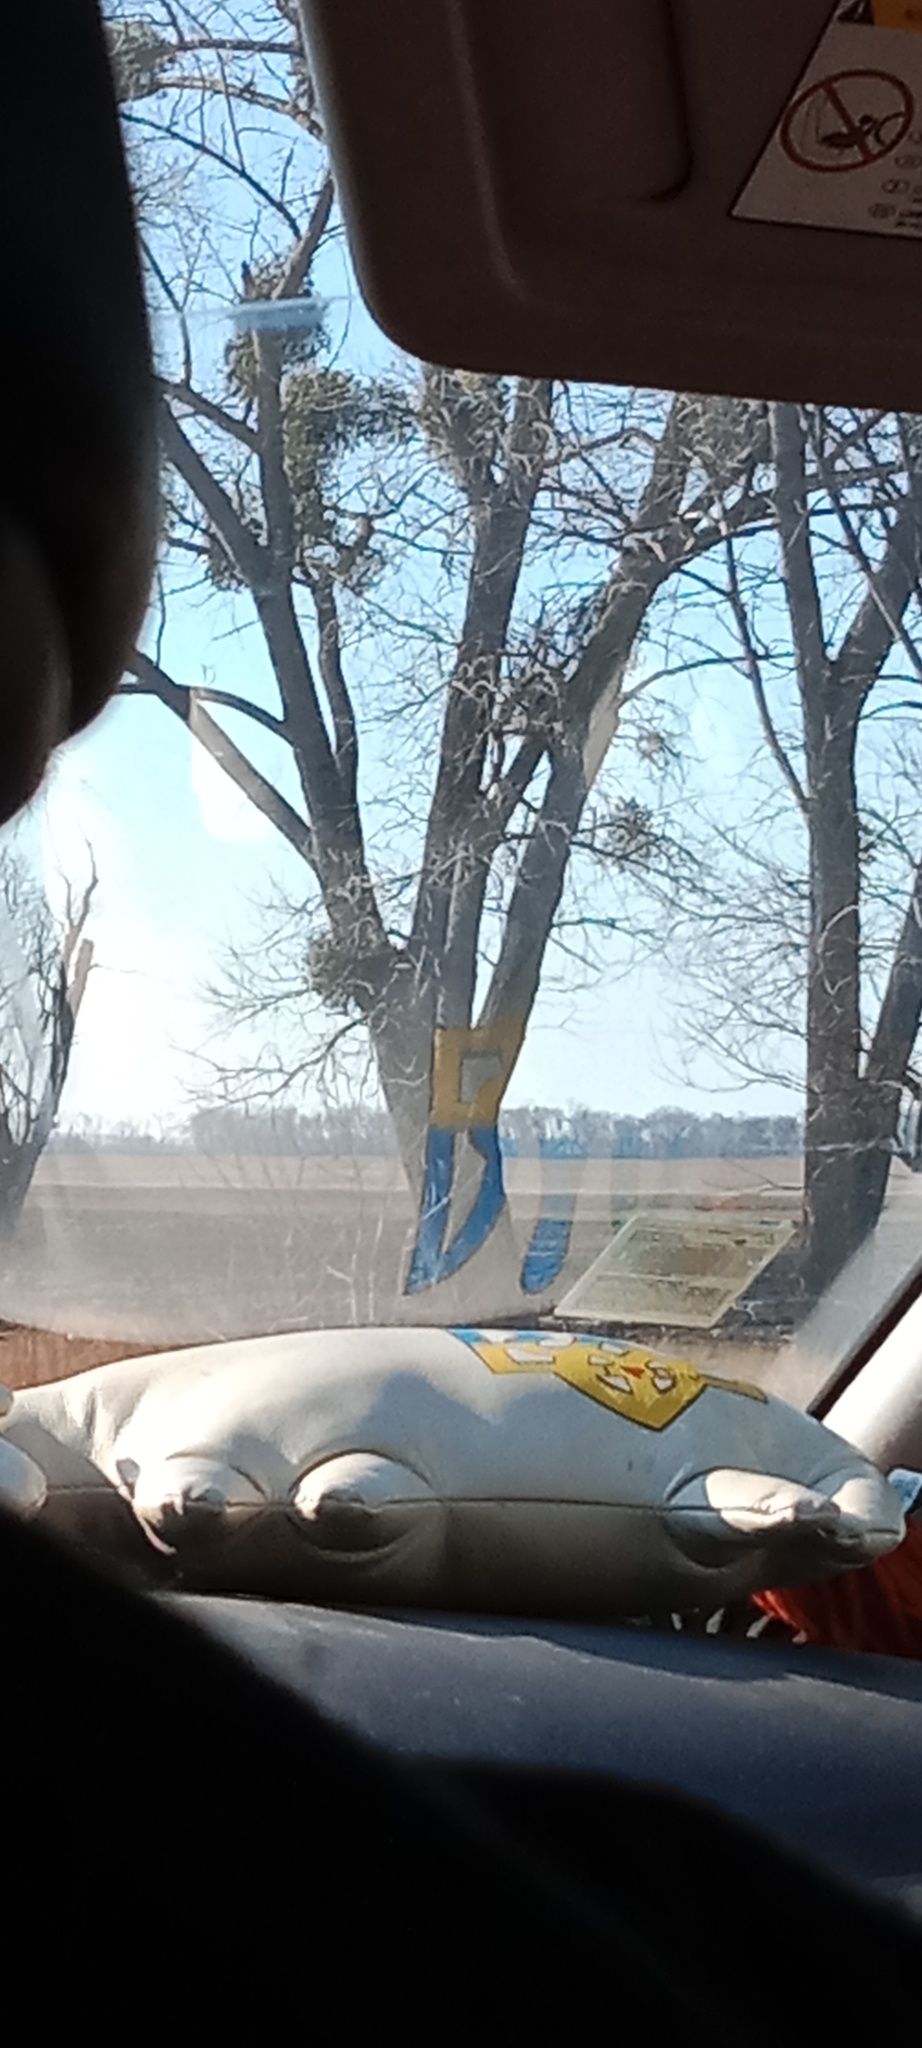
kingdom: Plantae
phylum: Tracheophyta
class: Magnoliopsida
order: Santalales
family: Viscaceae
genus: Viscum
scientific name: Viscum album
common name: Mistletoe
